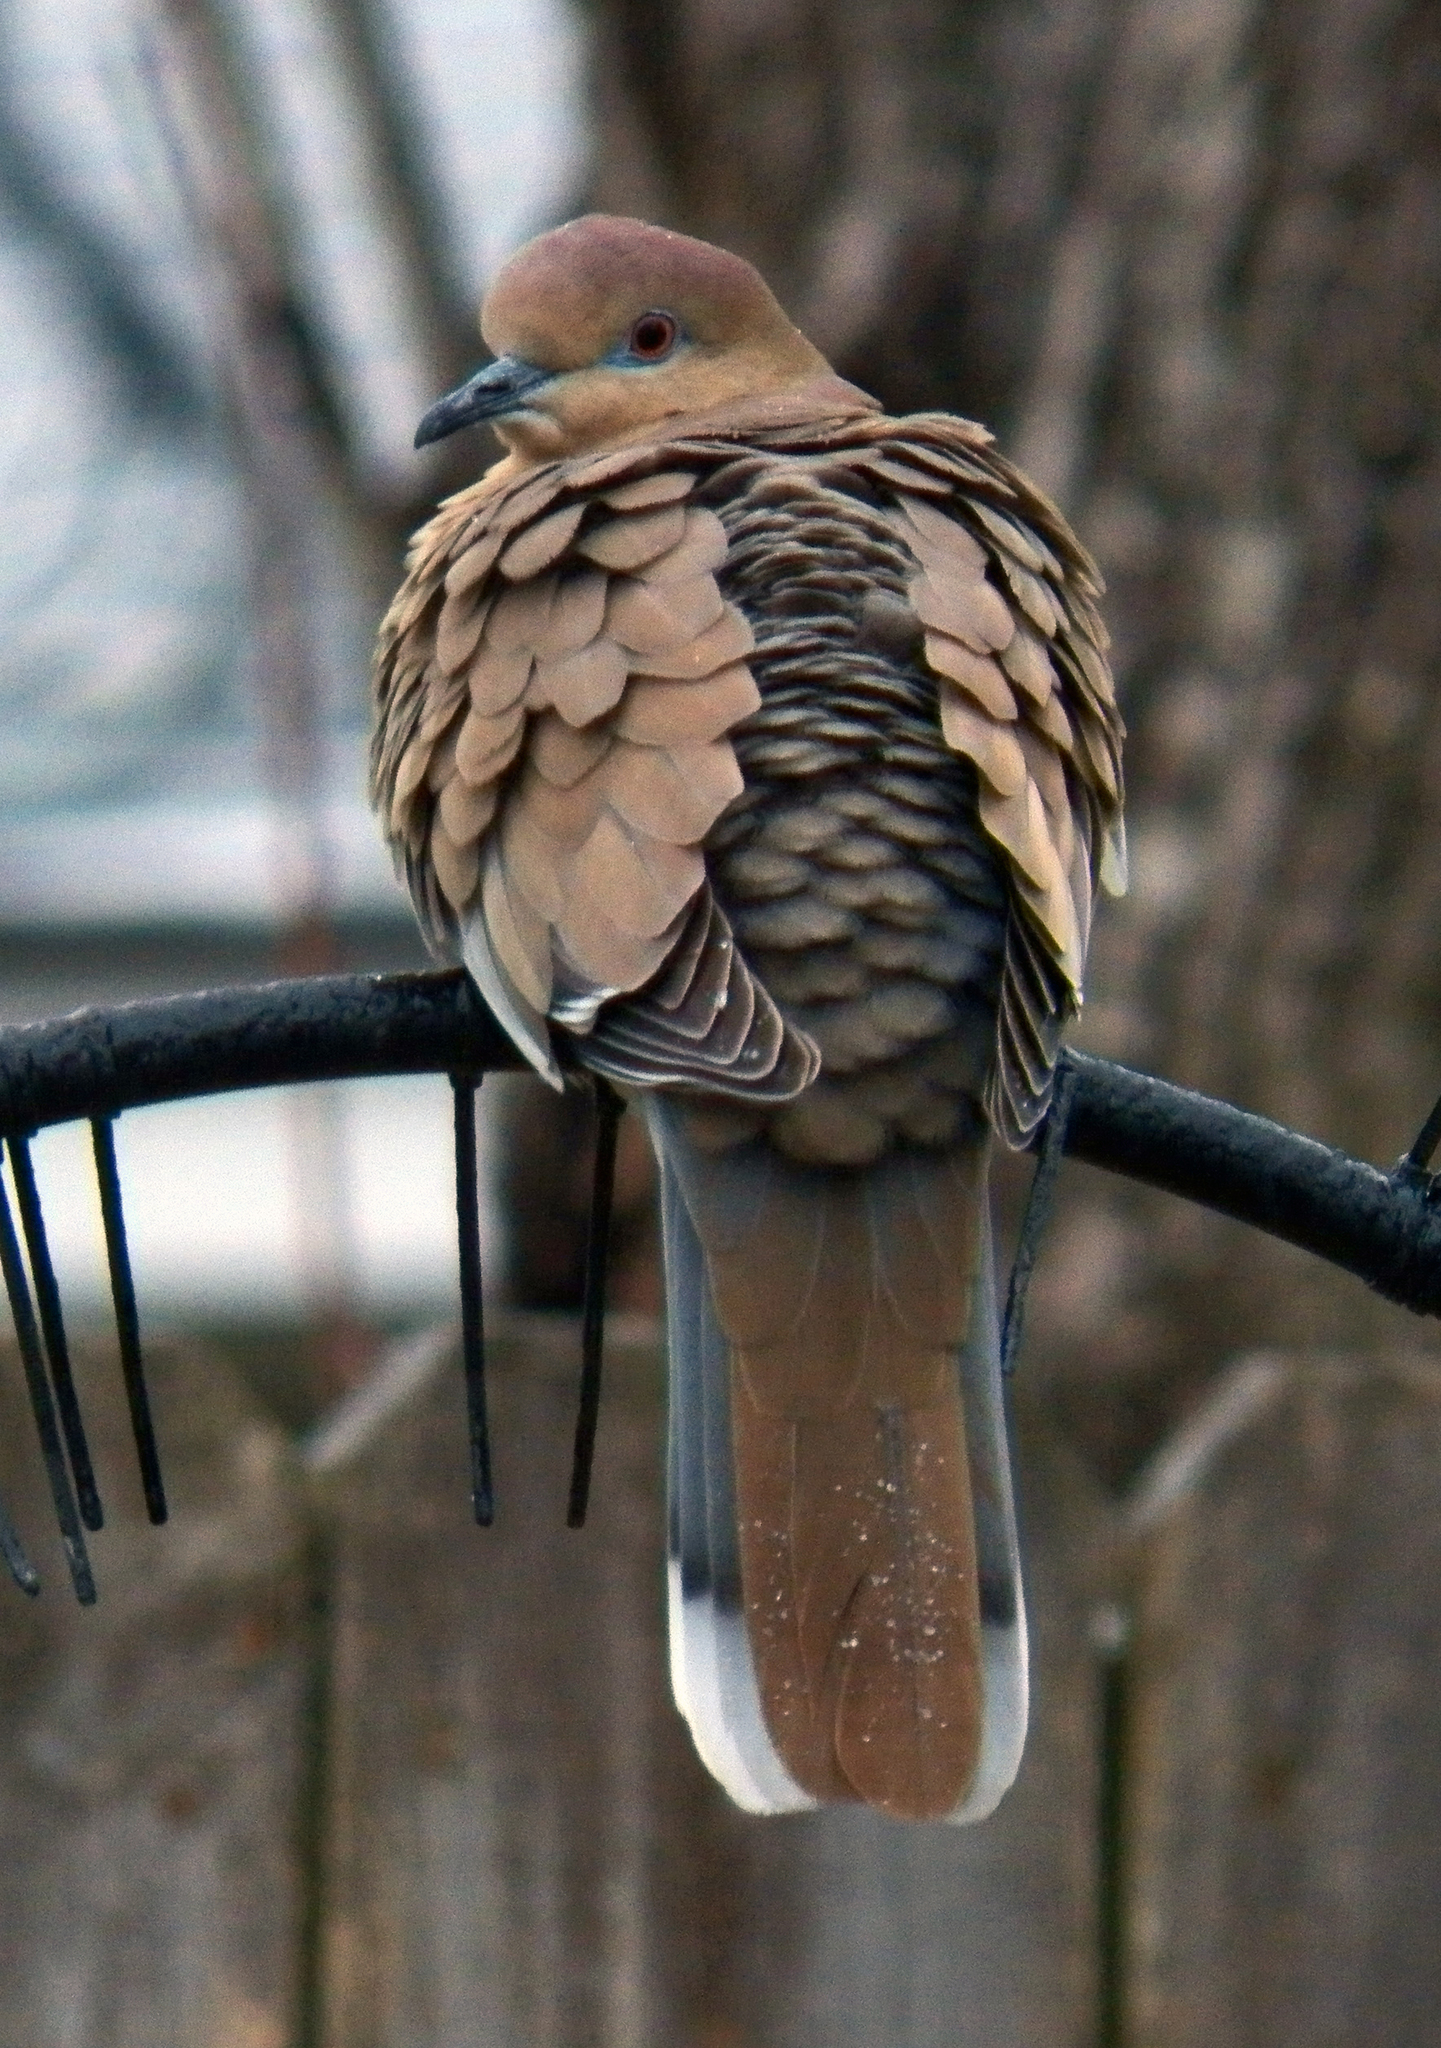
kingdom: Animalia
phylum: Chordata
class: Aves
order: Columbiformes
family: Columbidae
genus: Zenaida
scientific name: Zenaida asiatica
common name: White-winged dove
